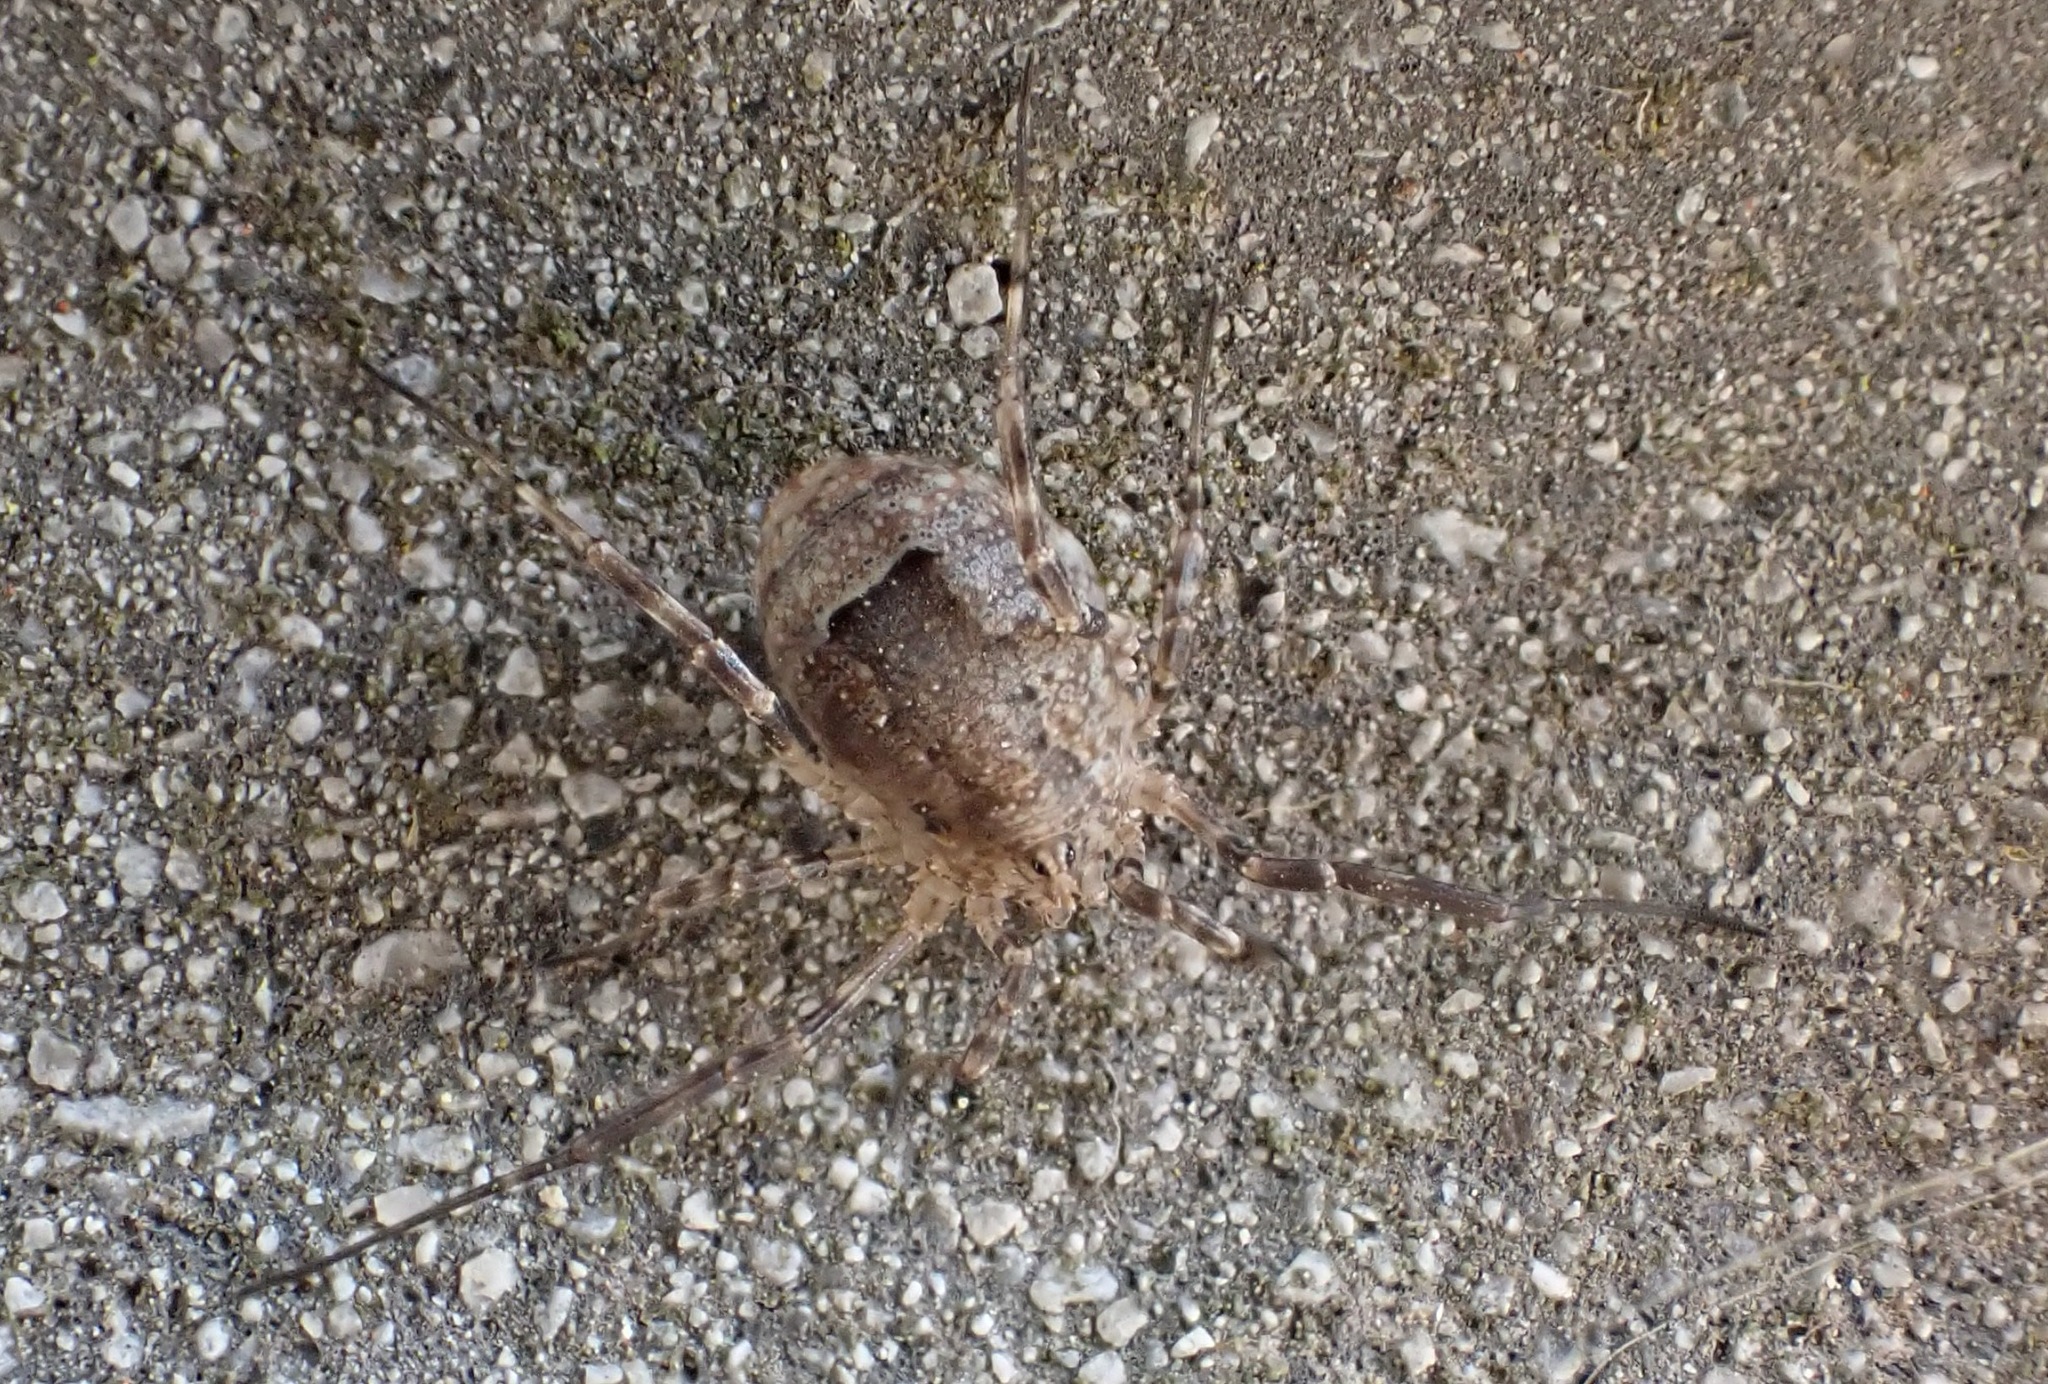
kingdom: Animalia
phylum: Arthropoda
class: Arachnida
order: Opiliones
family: Phalangiidae
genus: Odiellus
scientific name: Odiellus spinosus
